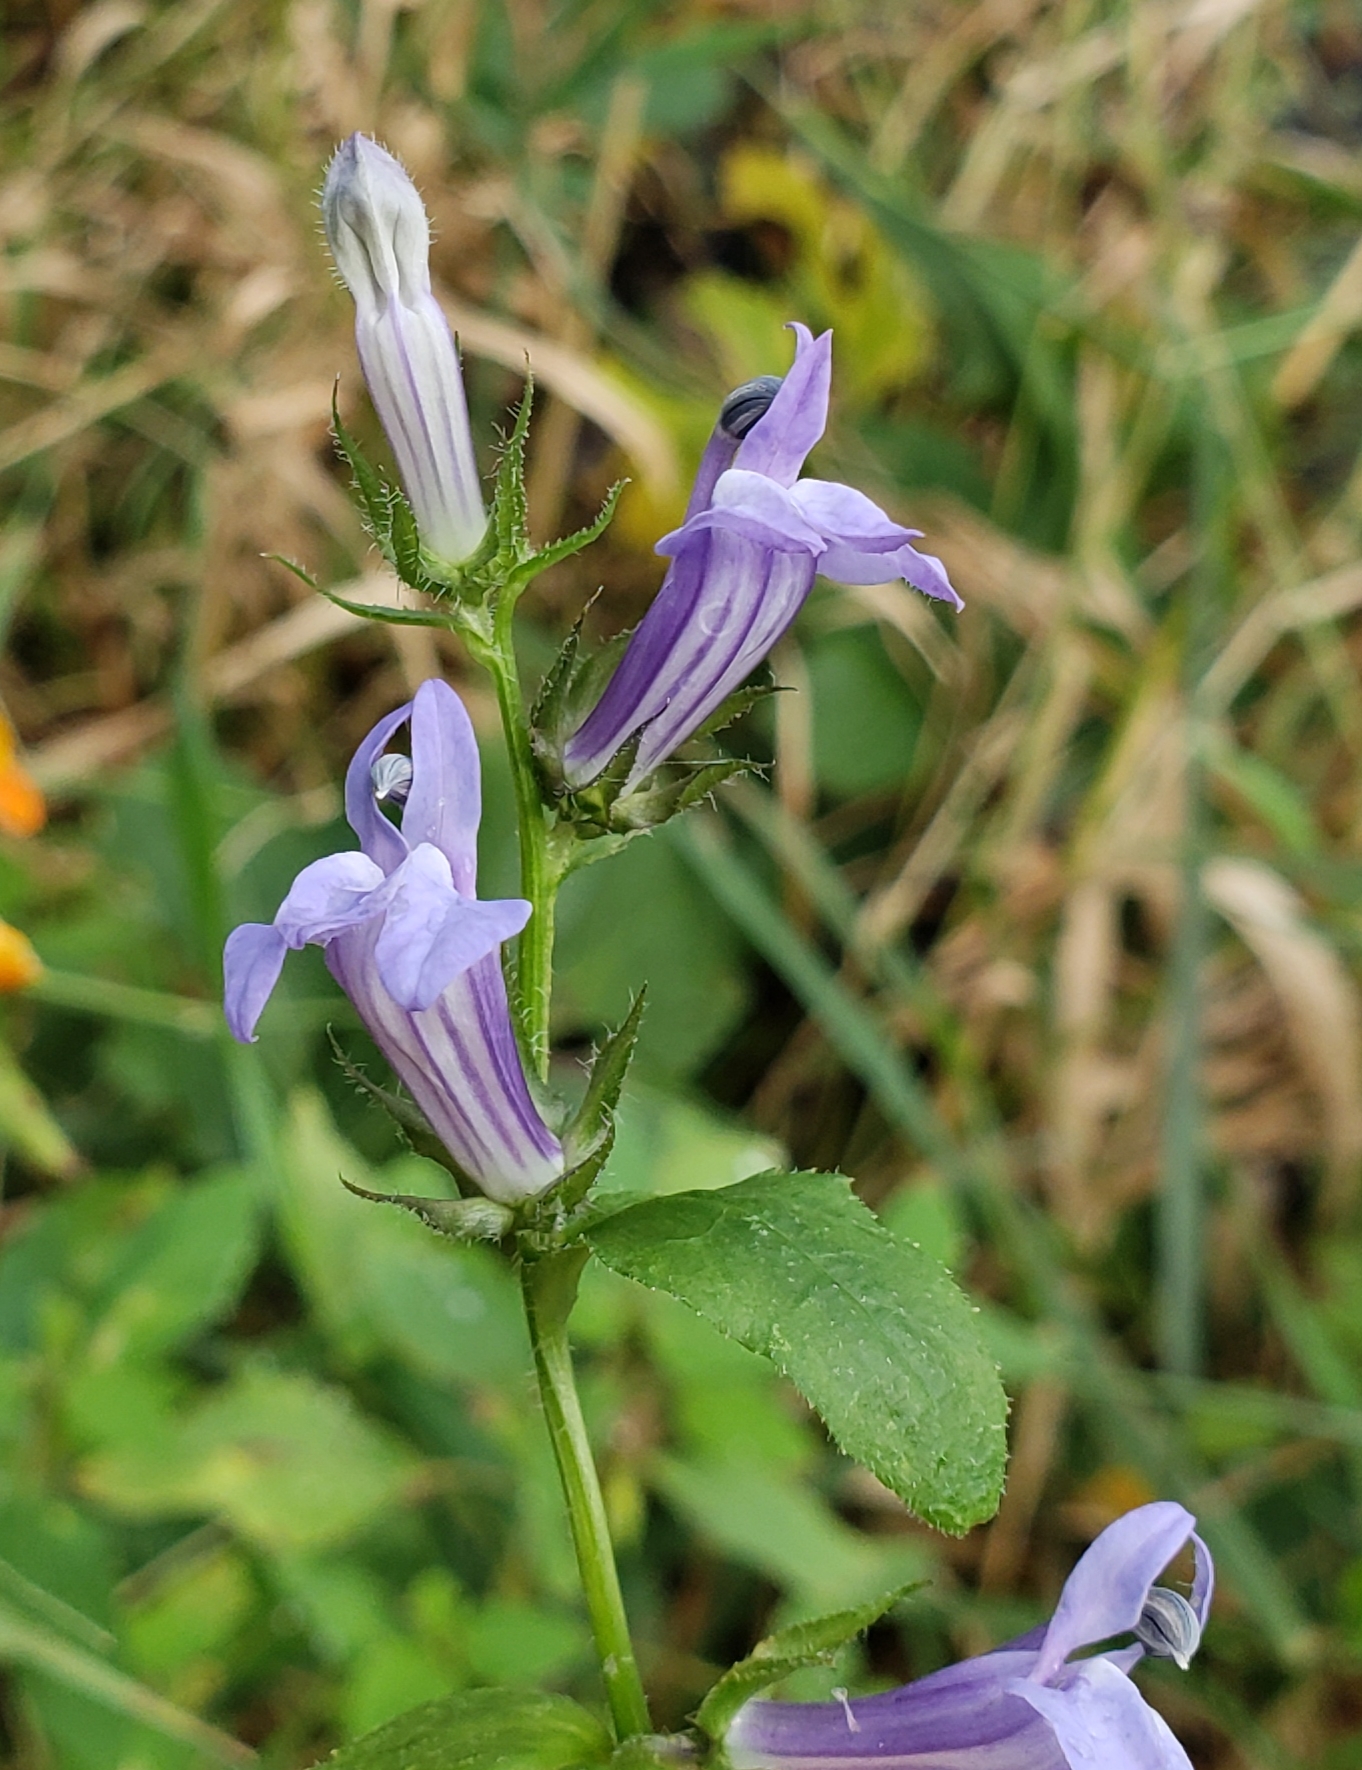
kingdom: Plantae
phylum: Tracheophyta
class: Magnoliopsida
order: Asterales
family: Campanulaceae
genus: Lobelia
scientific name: Lobelia siphilitica
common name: Great lobelia
